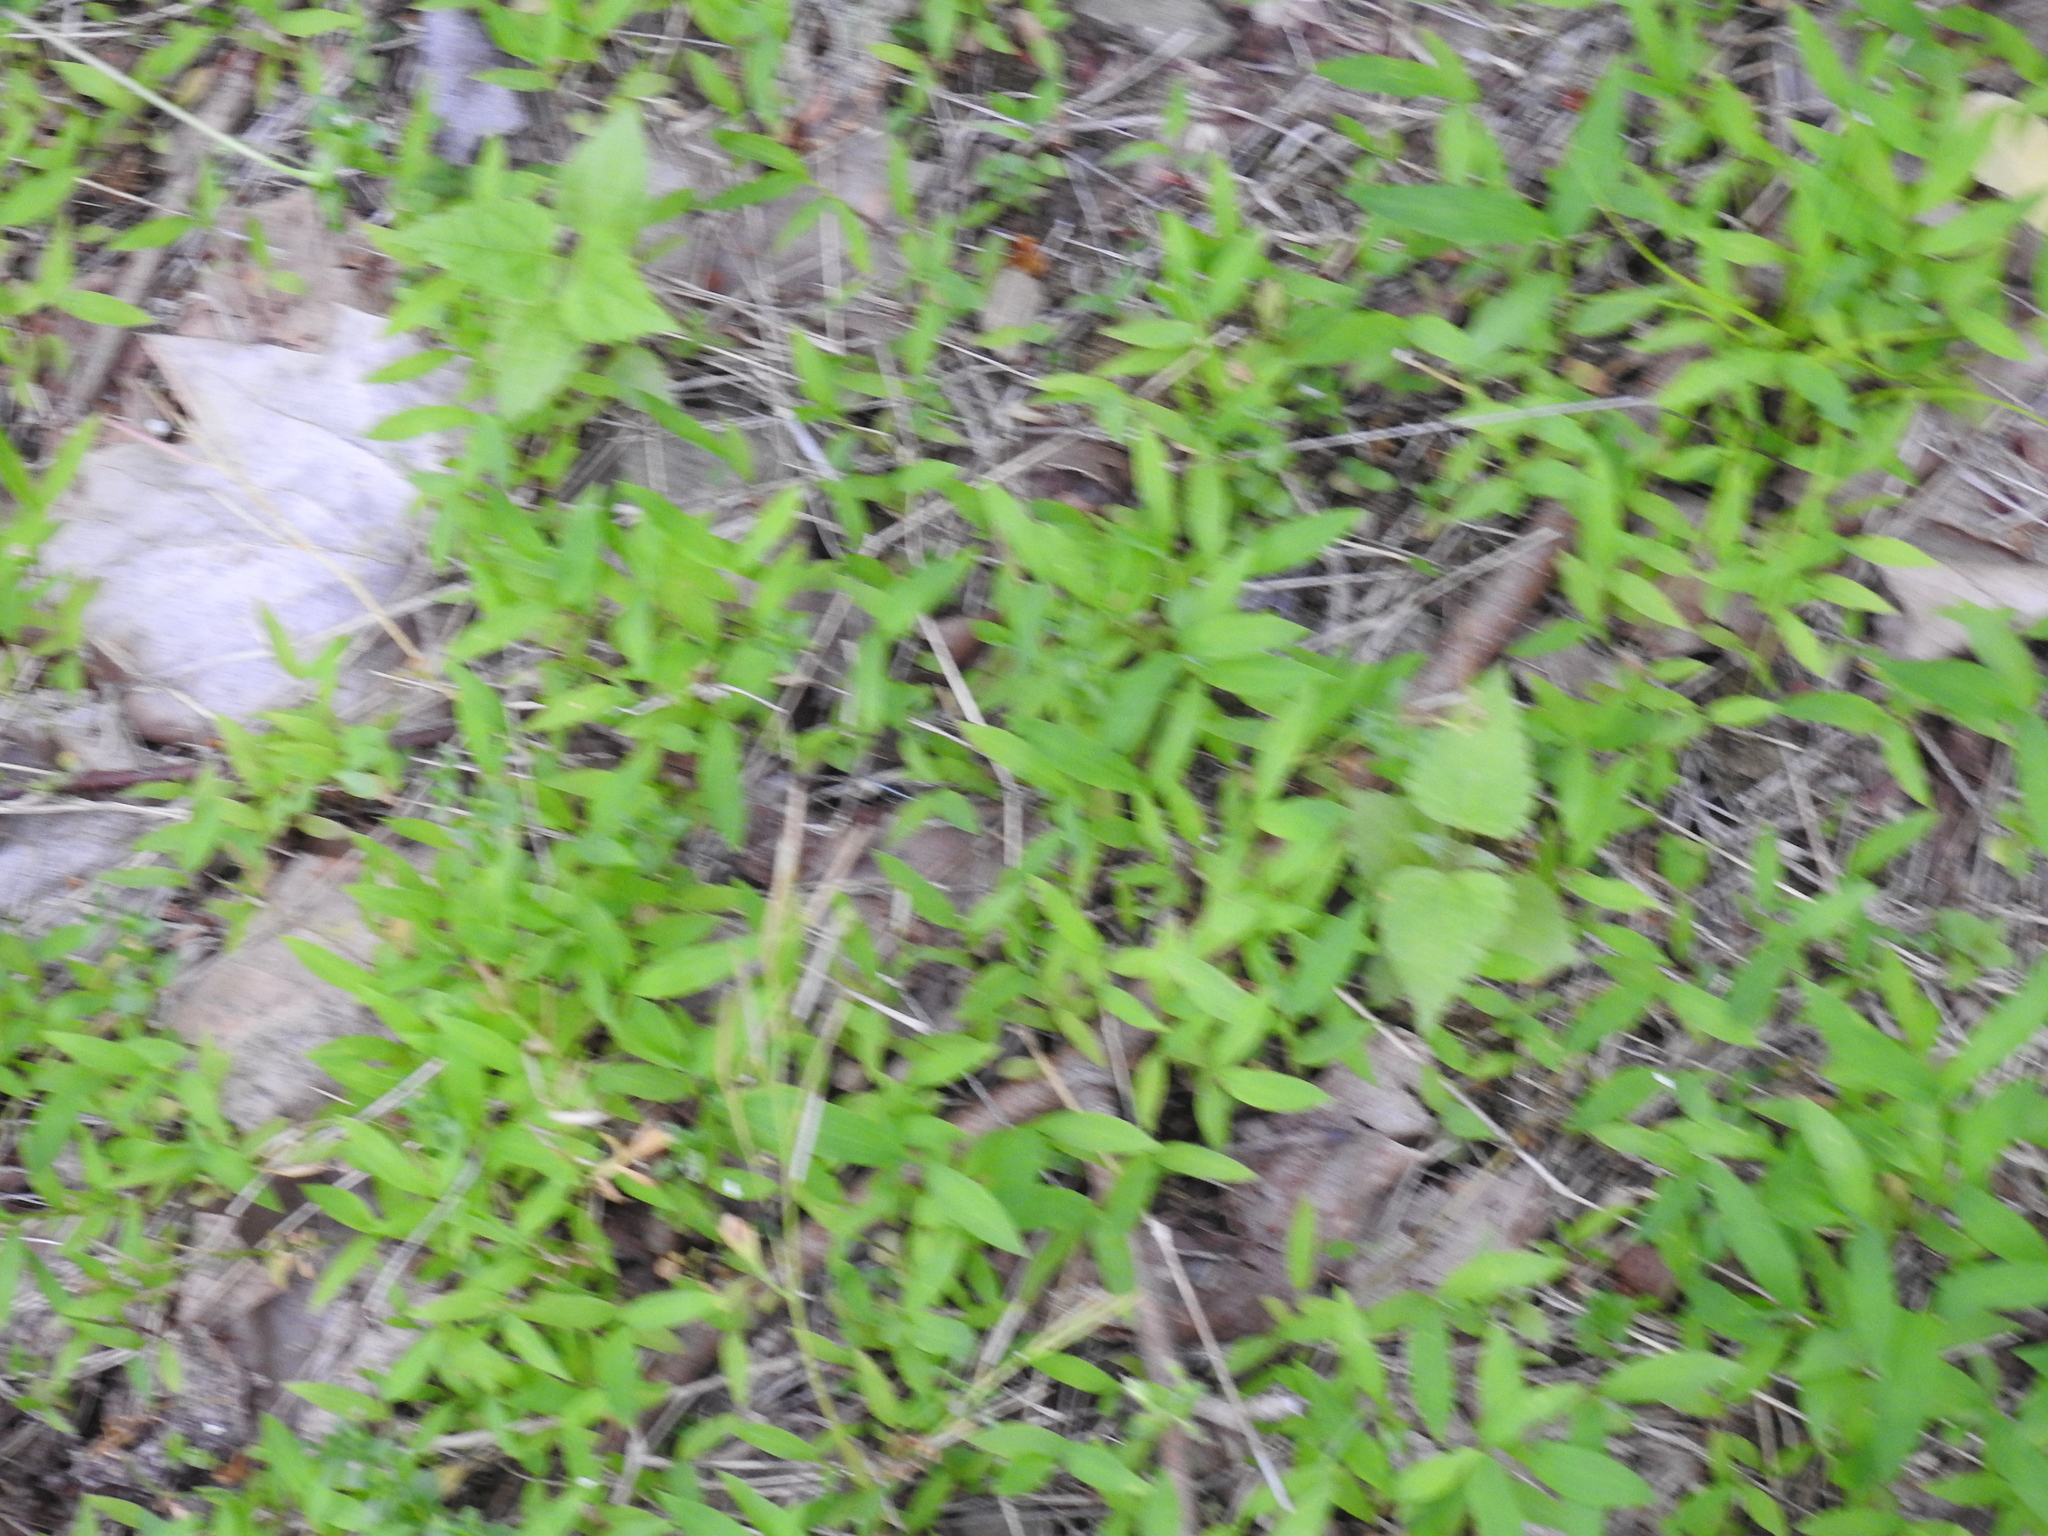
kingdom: Plantae
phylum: Tracheophyta
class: Liliopsida
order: Poales
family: Poaceae
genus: Microstegium
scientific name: Microstegium vimineum
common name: Japanese stiltgrass
